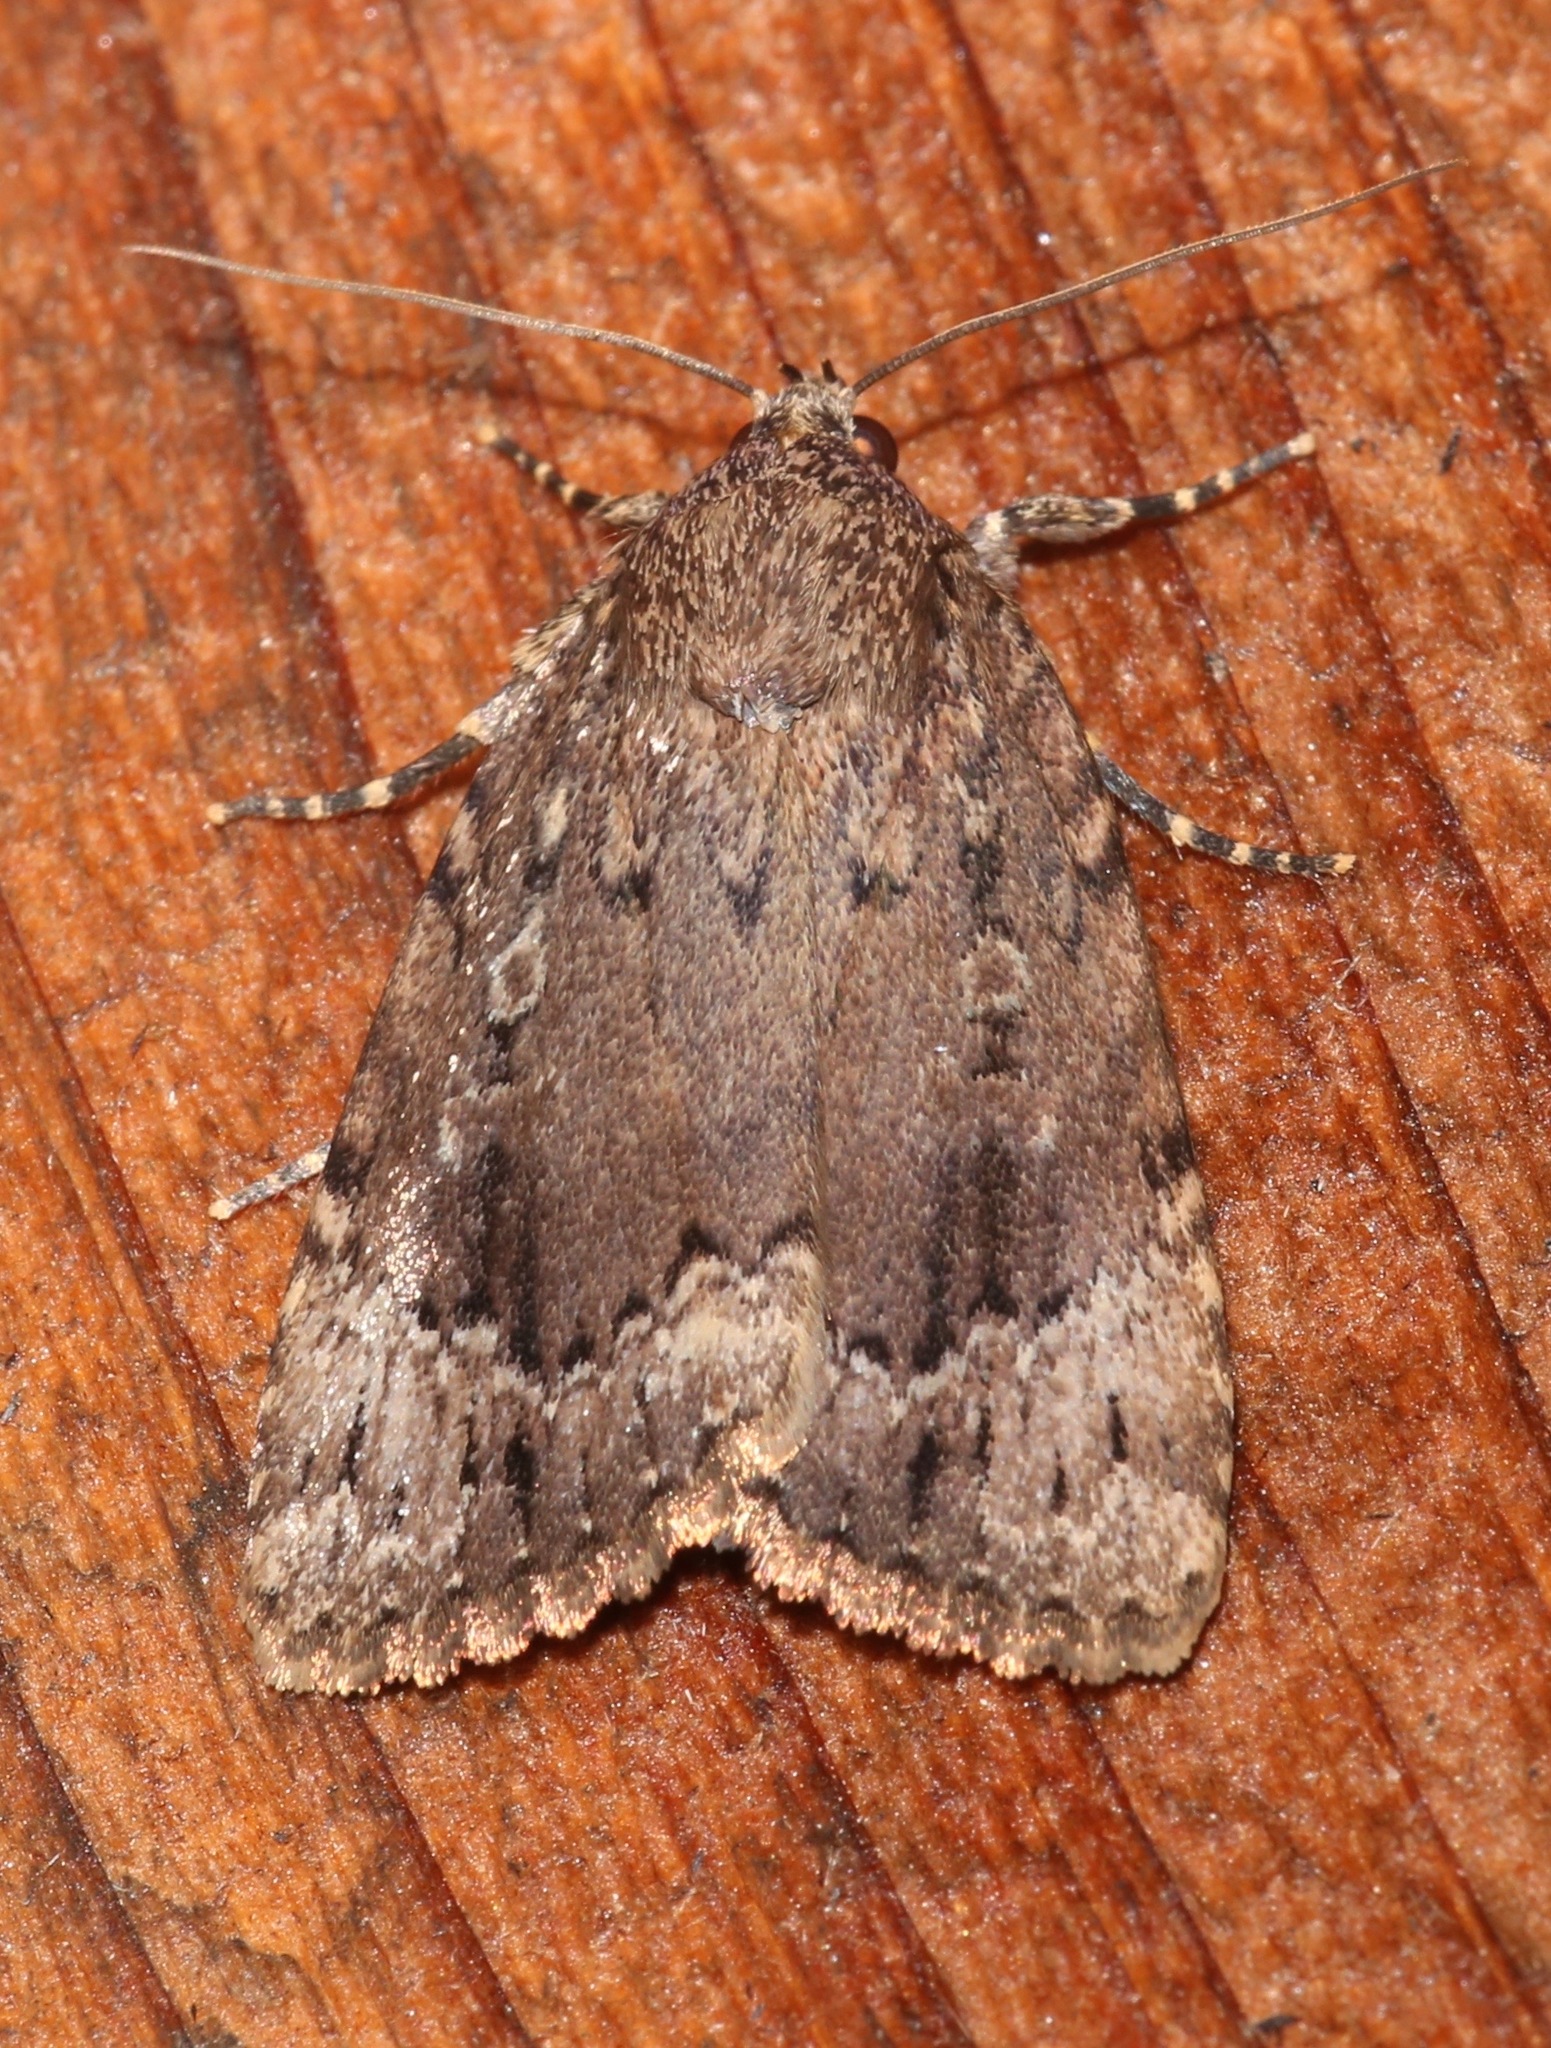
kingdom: Animalia
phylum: Arthropoda
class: Insecta
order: Lepidoptera
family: Noctuidae
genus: Amphipyra
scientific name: Amphipyra pyramidoides
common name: American copper underwing
